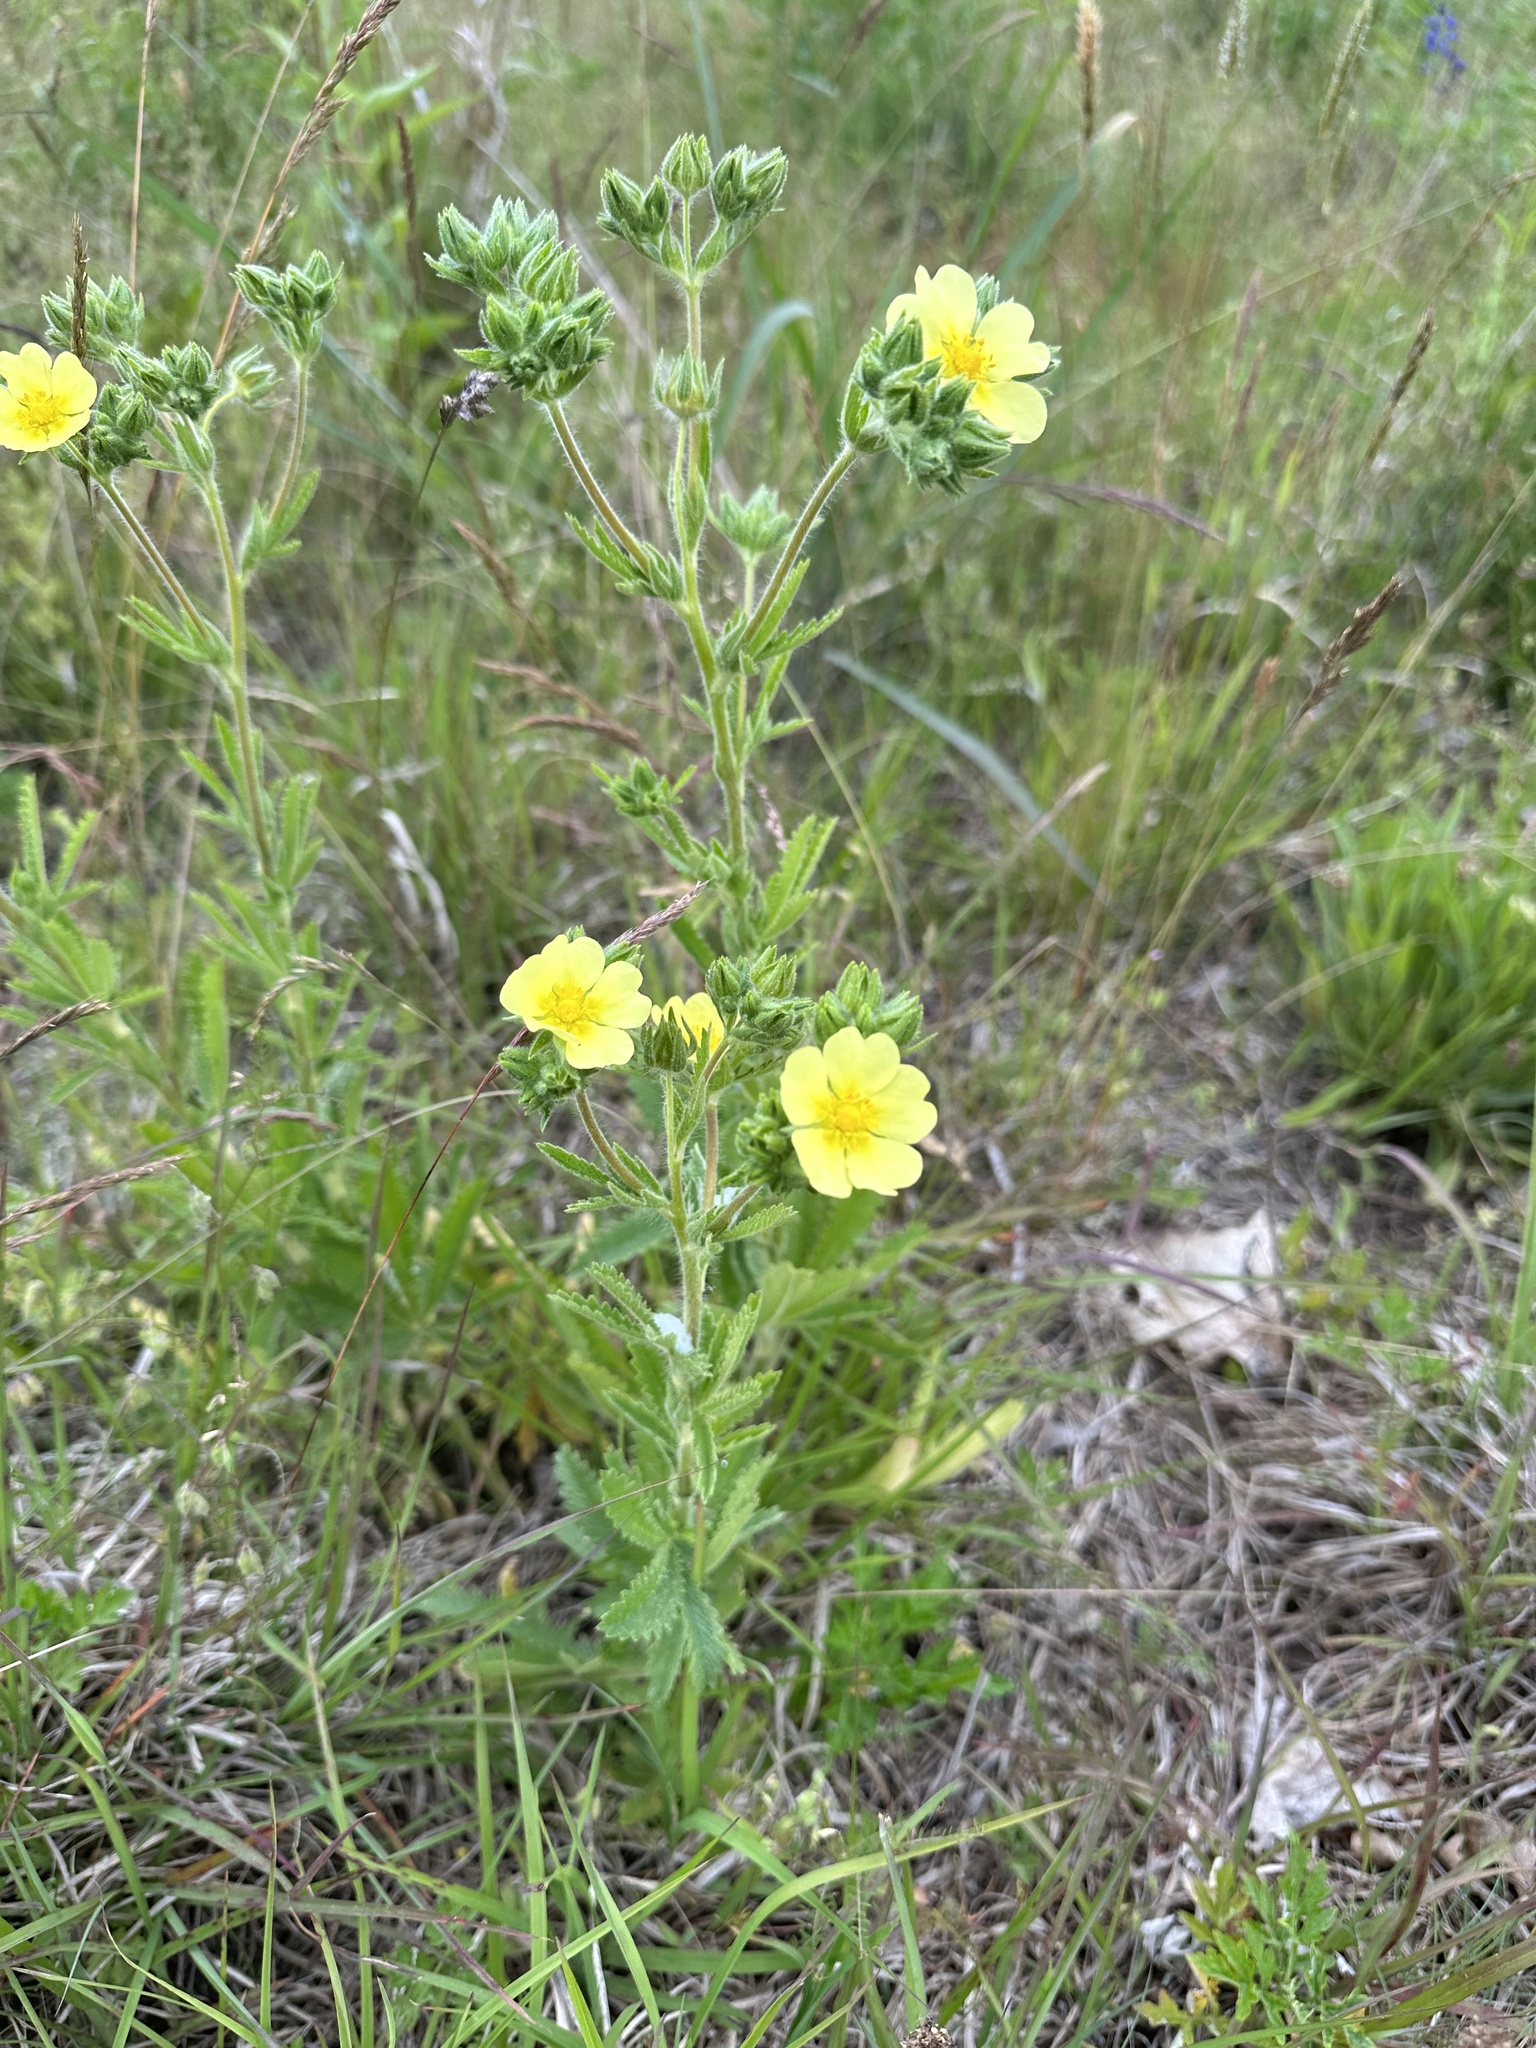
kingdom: Plantae
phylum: Tracheophyta
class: Magnoliopsida
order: Rosales
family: Rosaceae
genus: Potentilla
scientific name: Potentilla recta
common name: Sulphur cinquefoil
